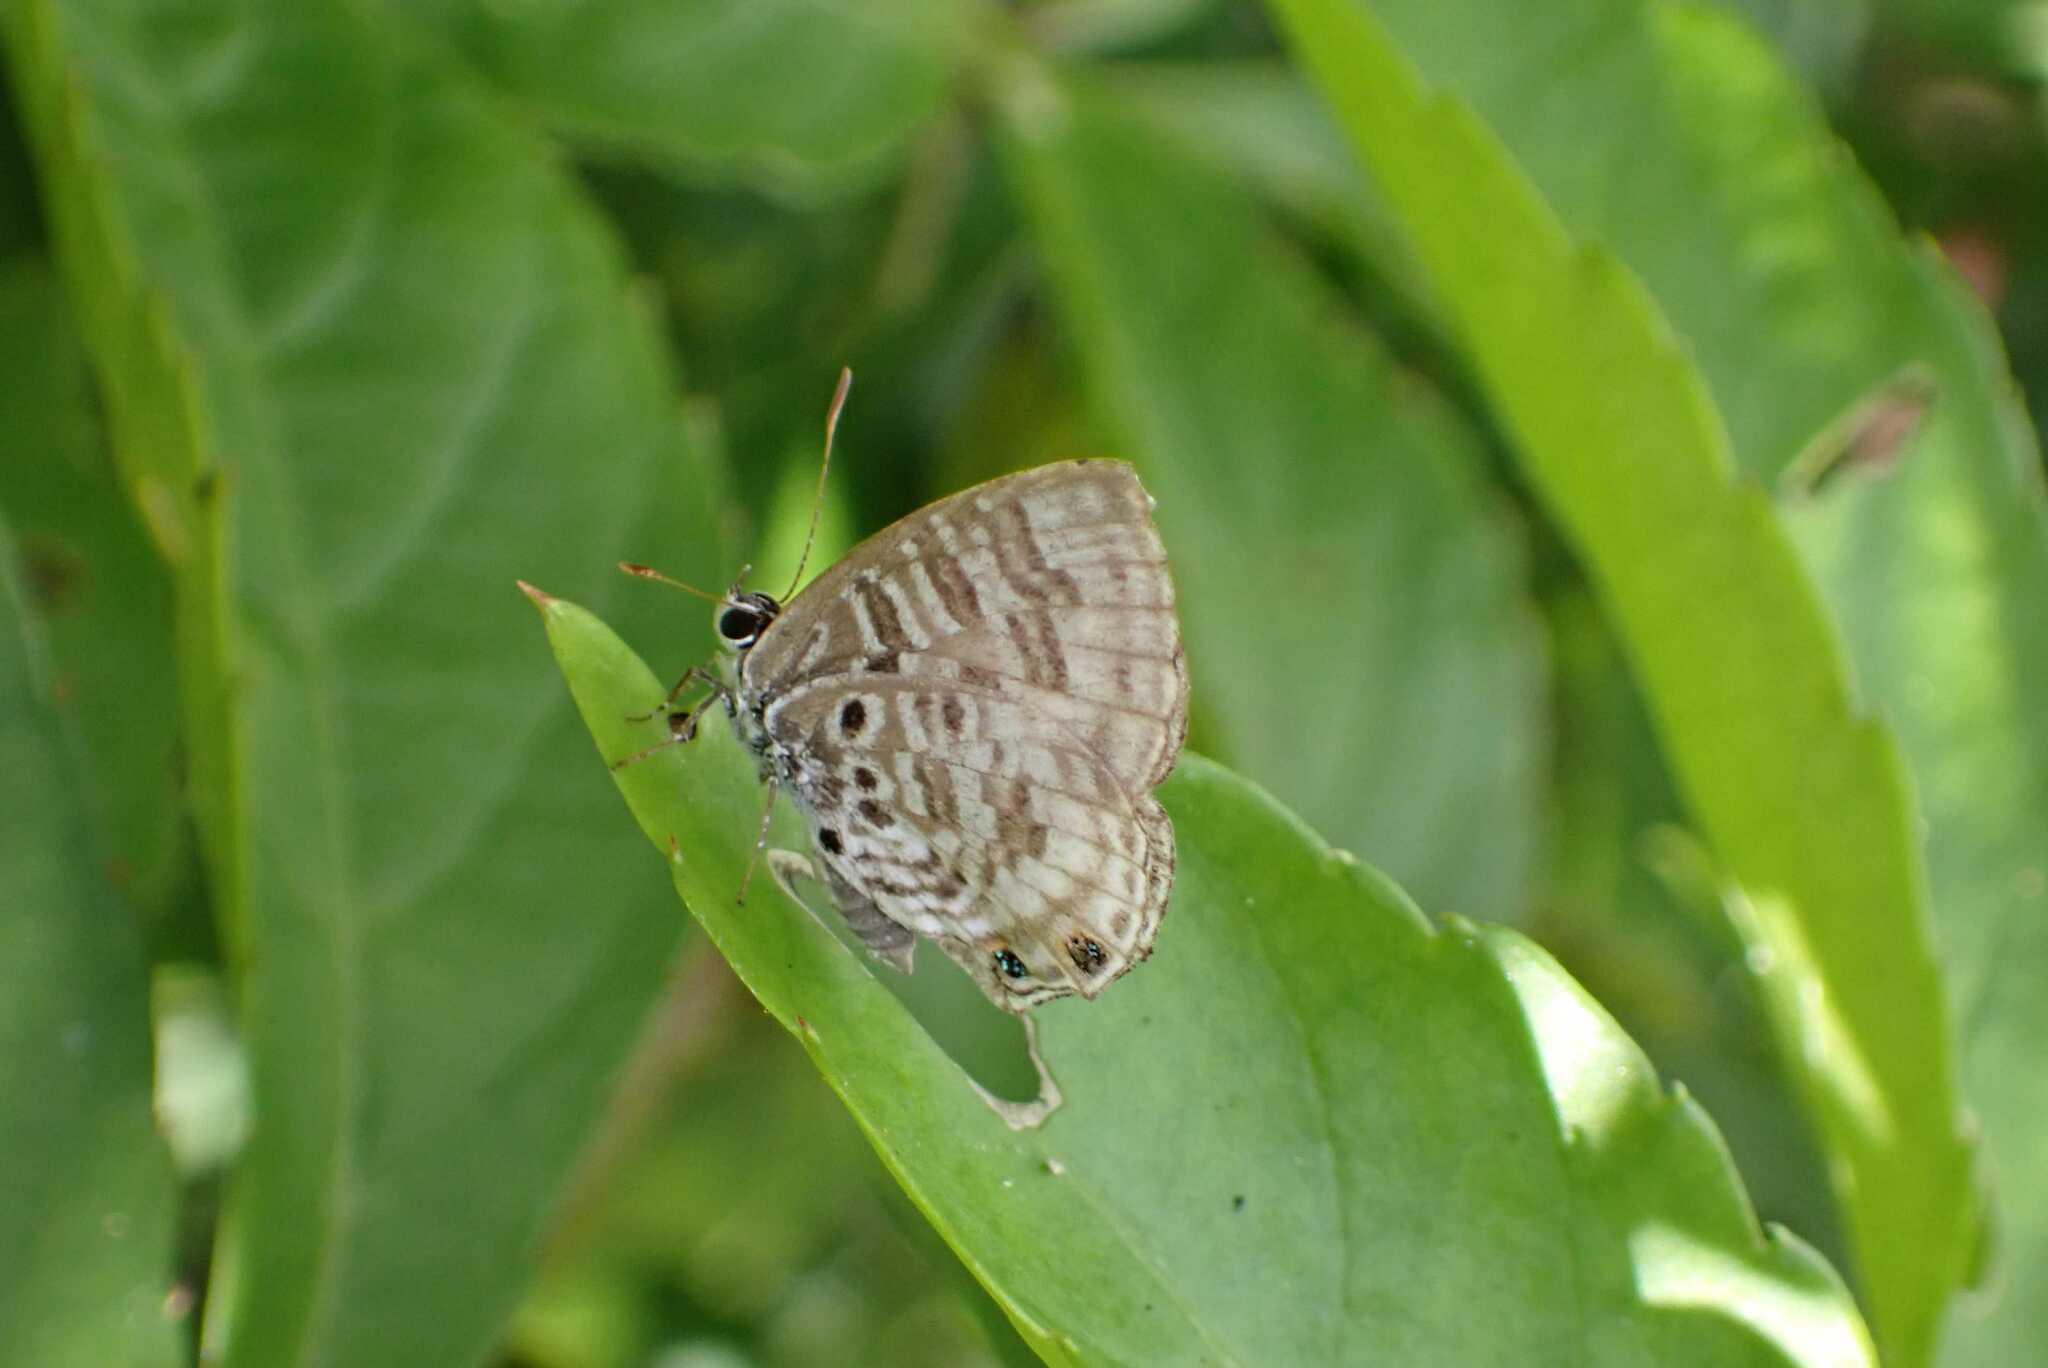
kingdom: Animalia
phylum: Arthropoda
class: Insecta
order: Lepidoptera
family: Lycaenidae
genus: Anthene
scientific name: Anthene larydas
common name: Forest hairtail
